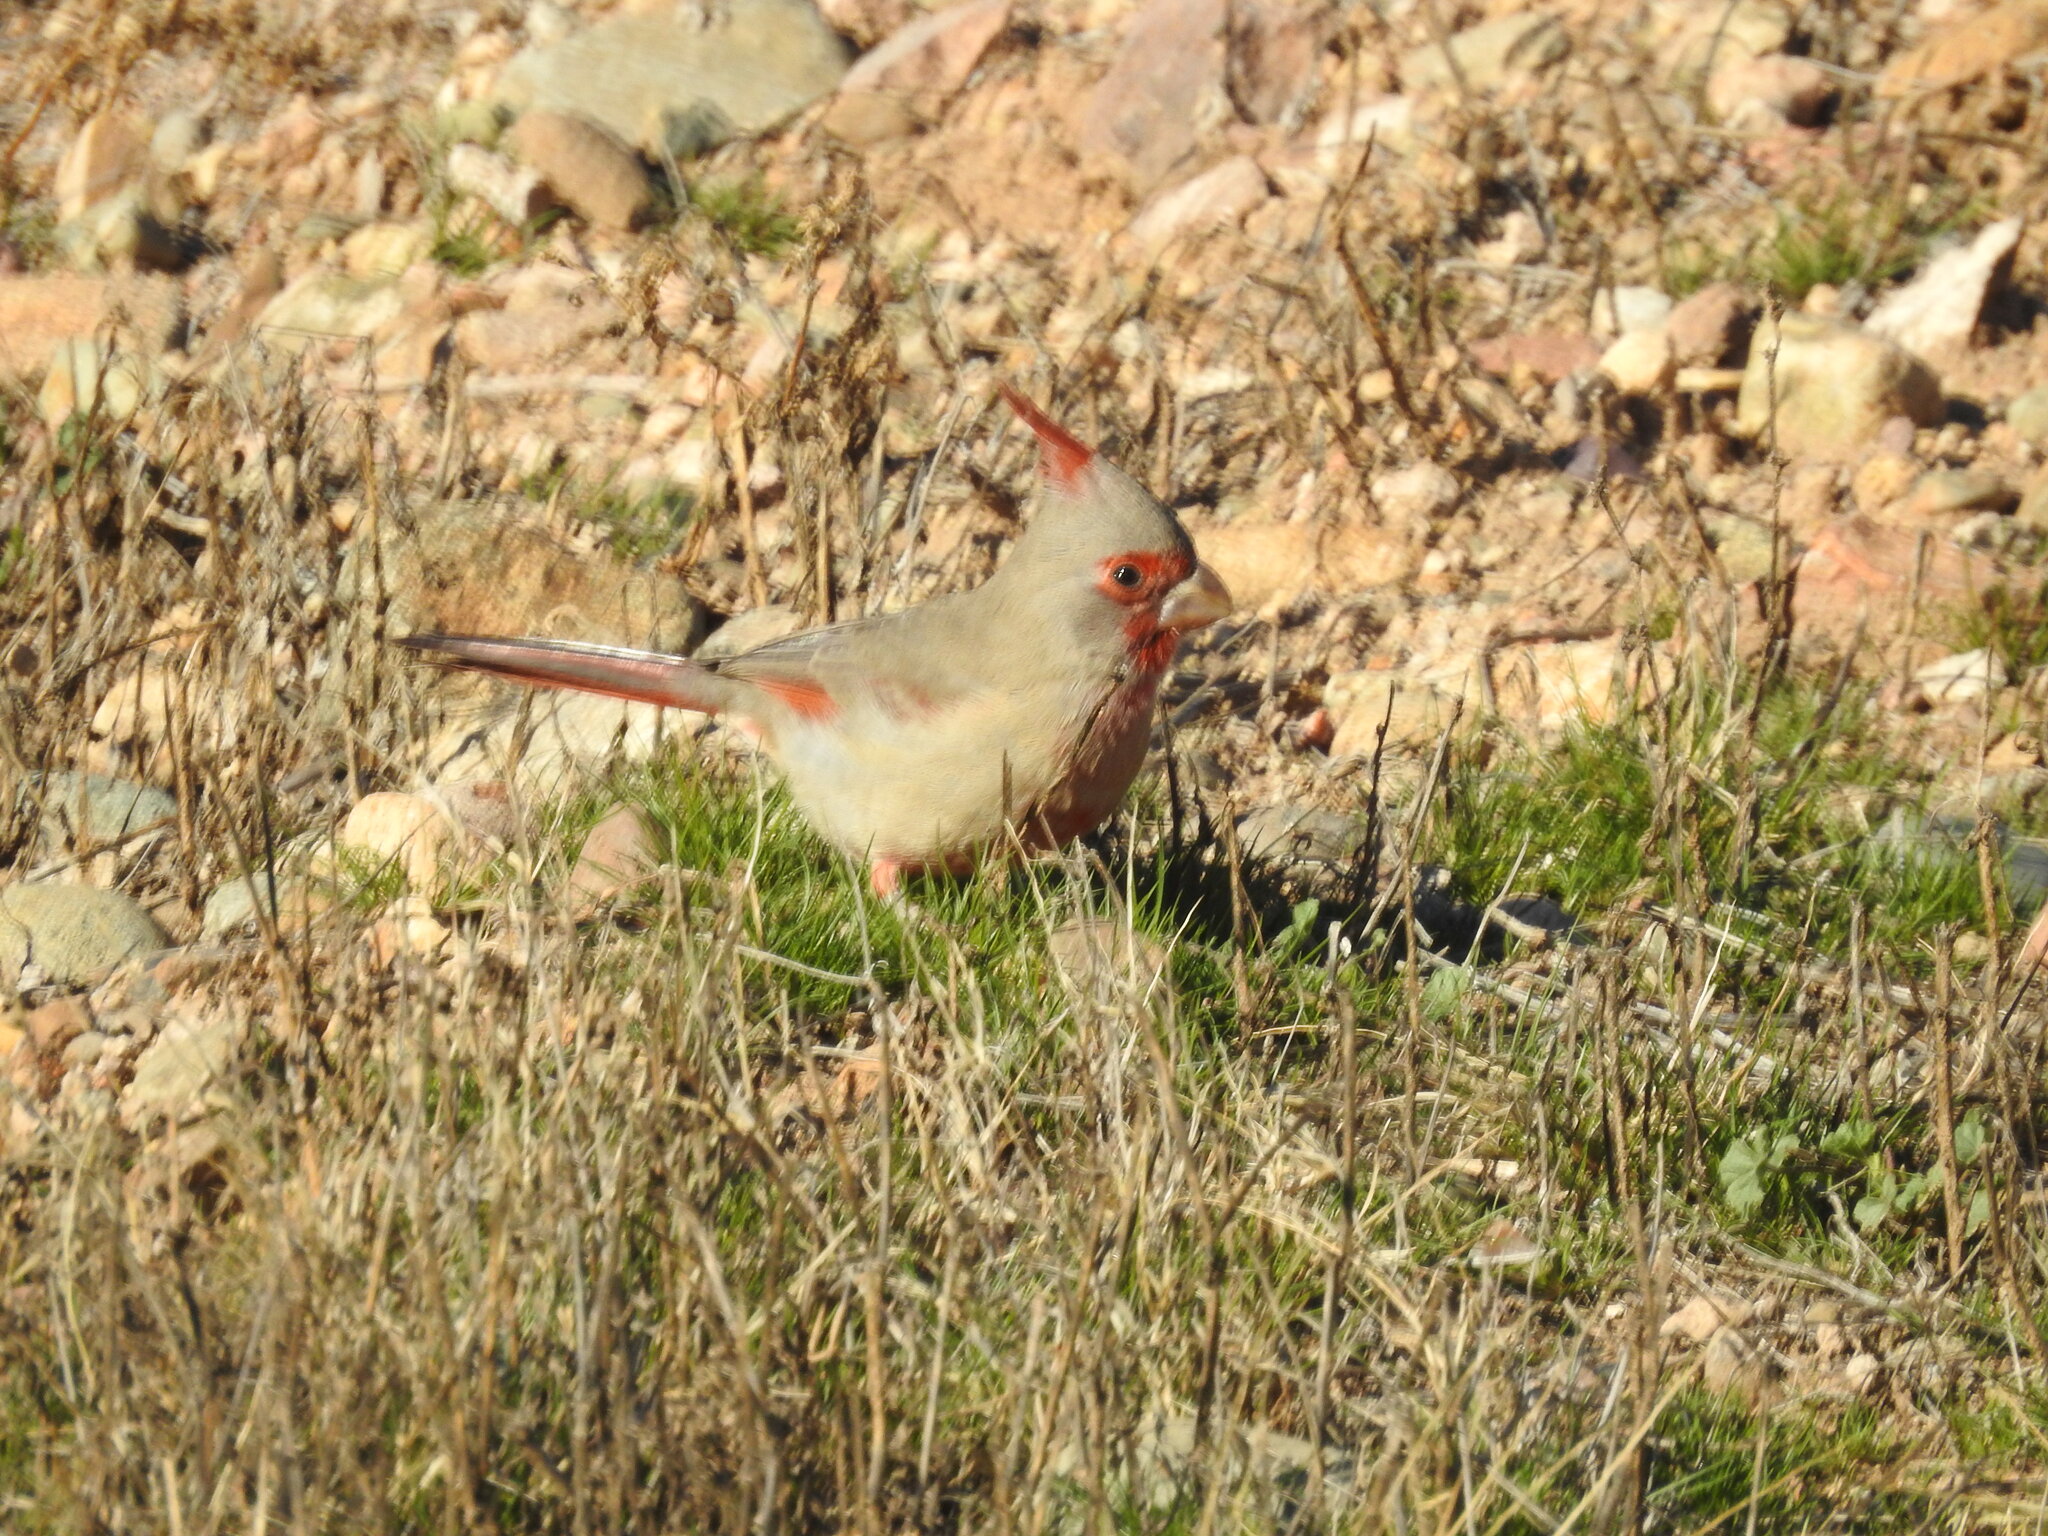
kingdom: Animalia
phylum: Chordata
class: Aves
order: Passeriformes
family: Cardinalidae
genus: Cardinalis
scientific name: Cardinalis sinuatus
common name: Pyrrhuloxia
